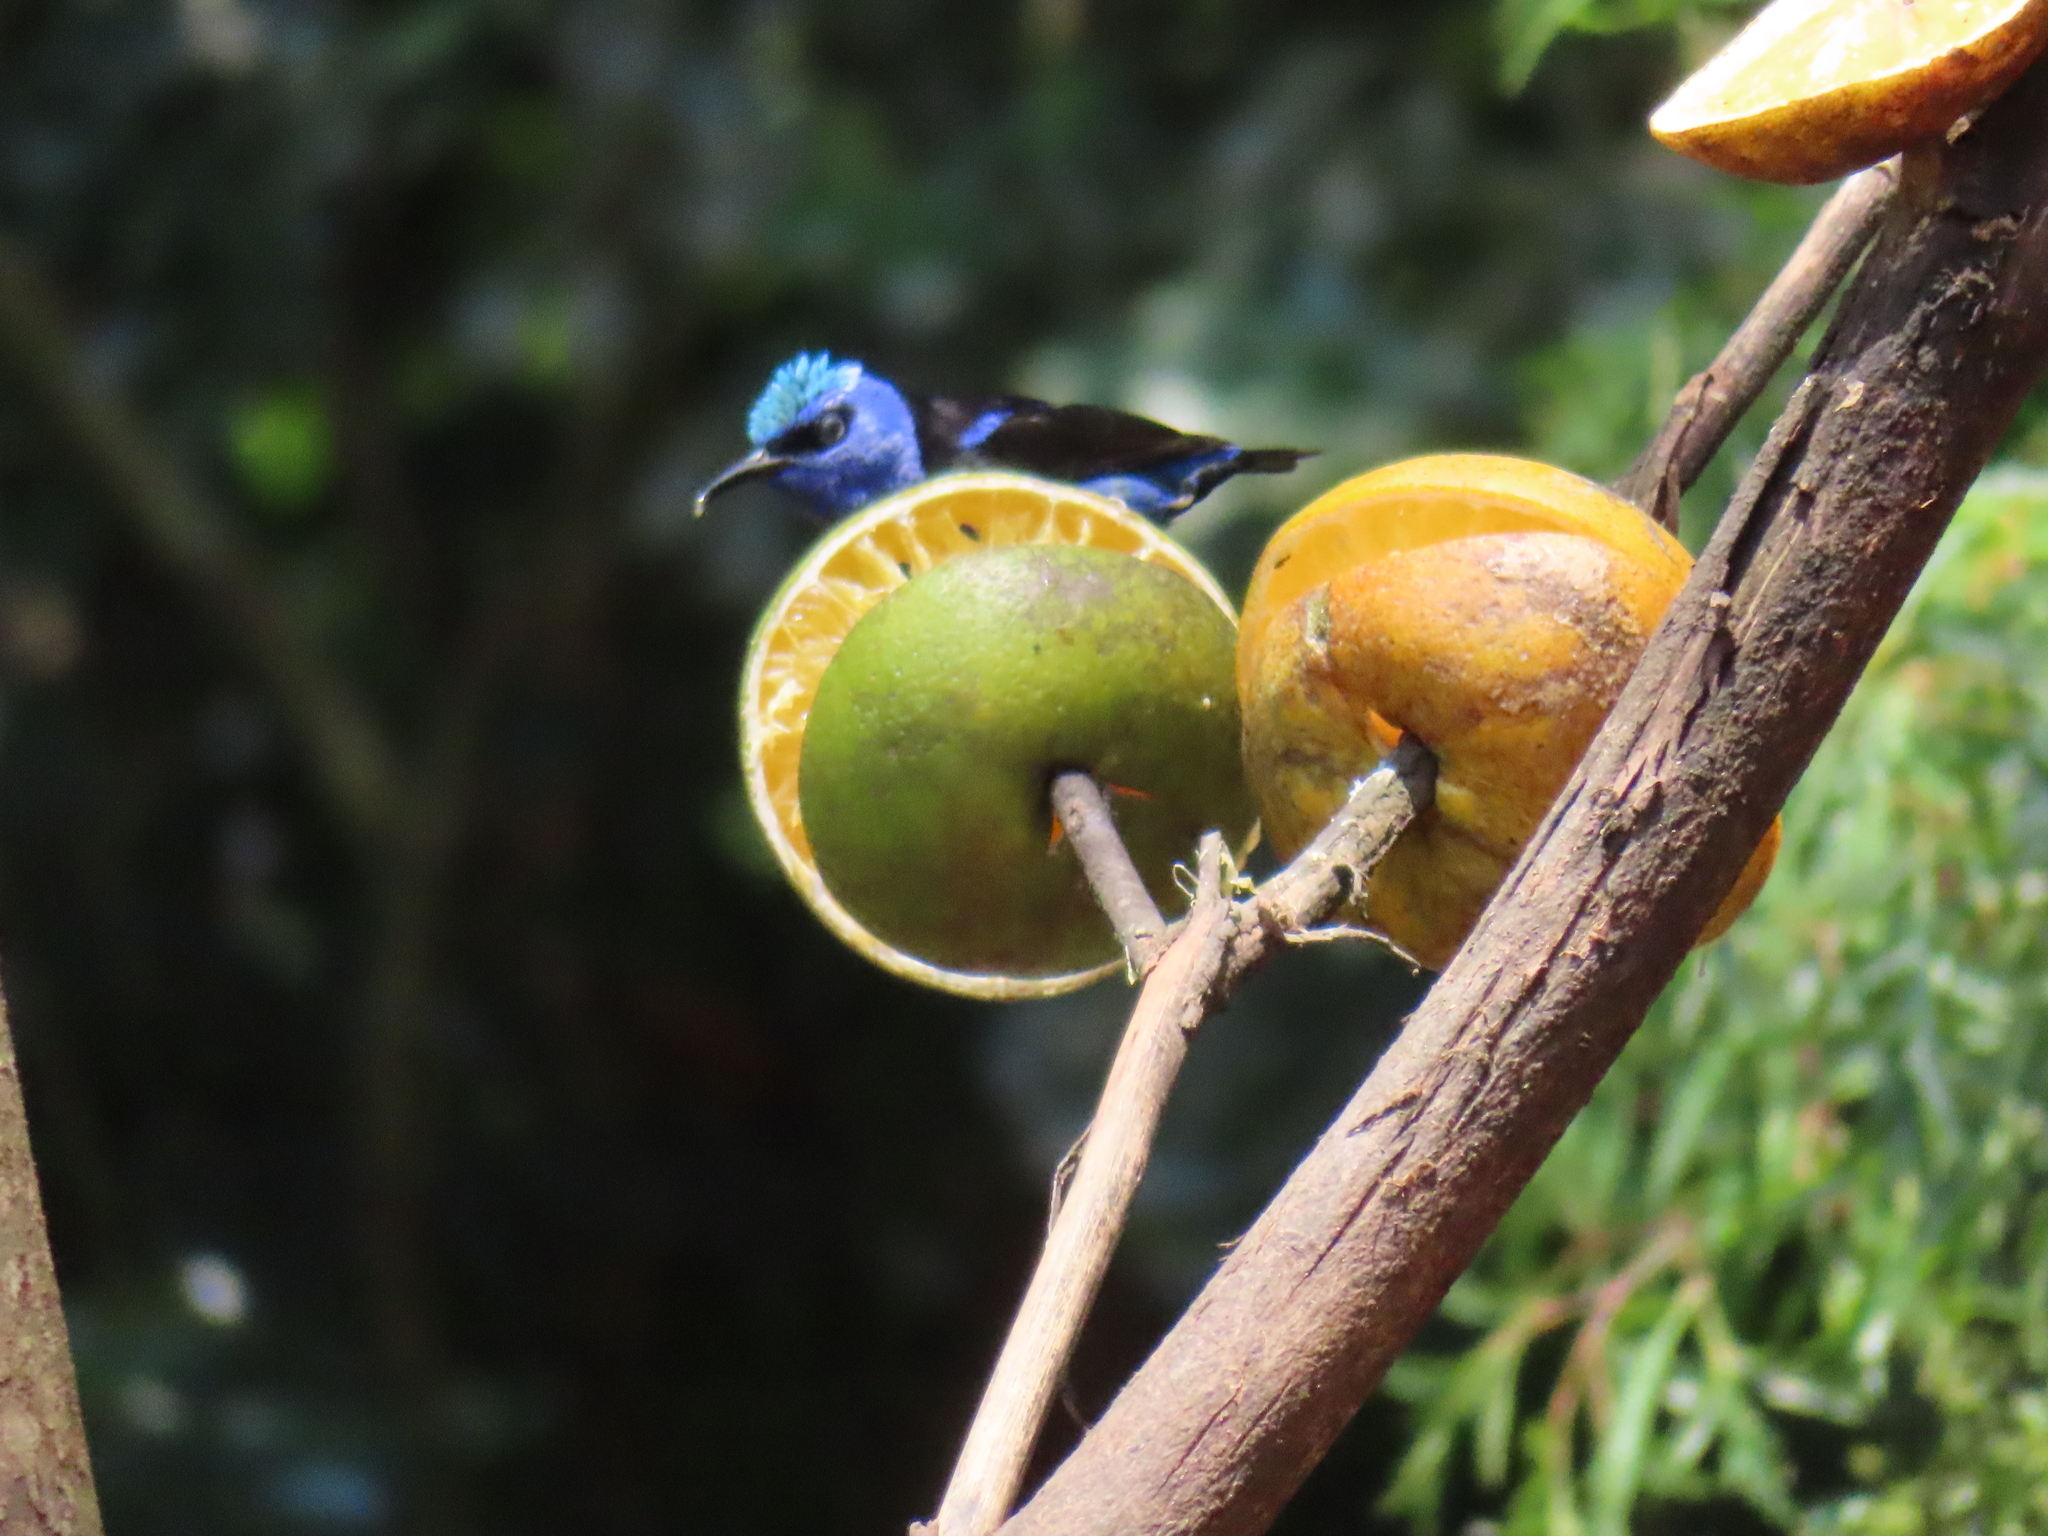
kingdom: Animalia
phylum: Chordata
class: Aves
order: Passeriformes
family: Thraupidae
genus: Cyanerpes
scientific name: Cyanerpes cyaneus
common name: Red-legged honeycreeper
